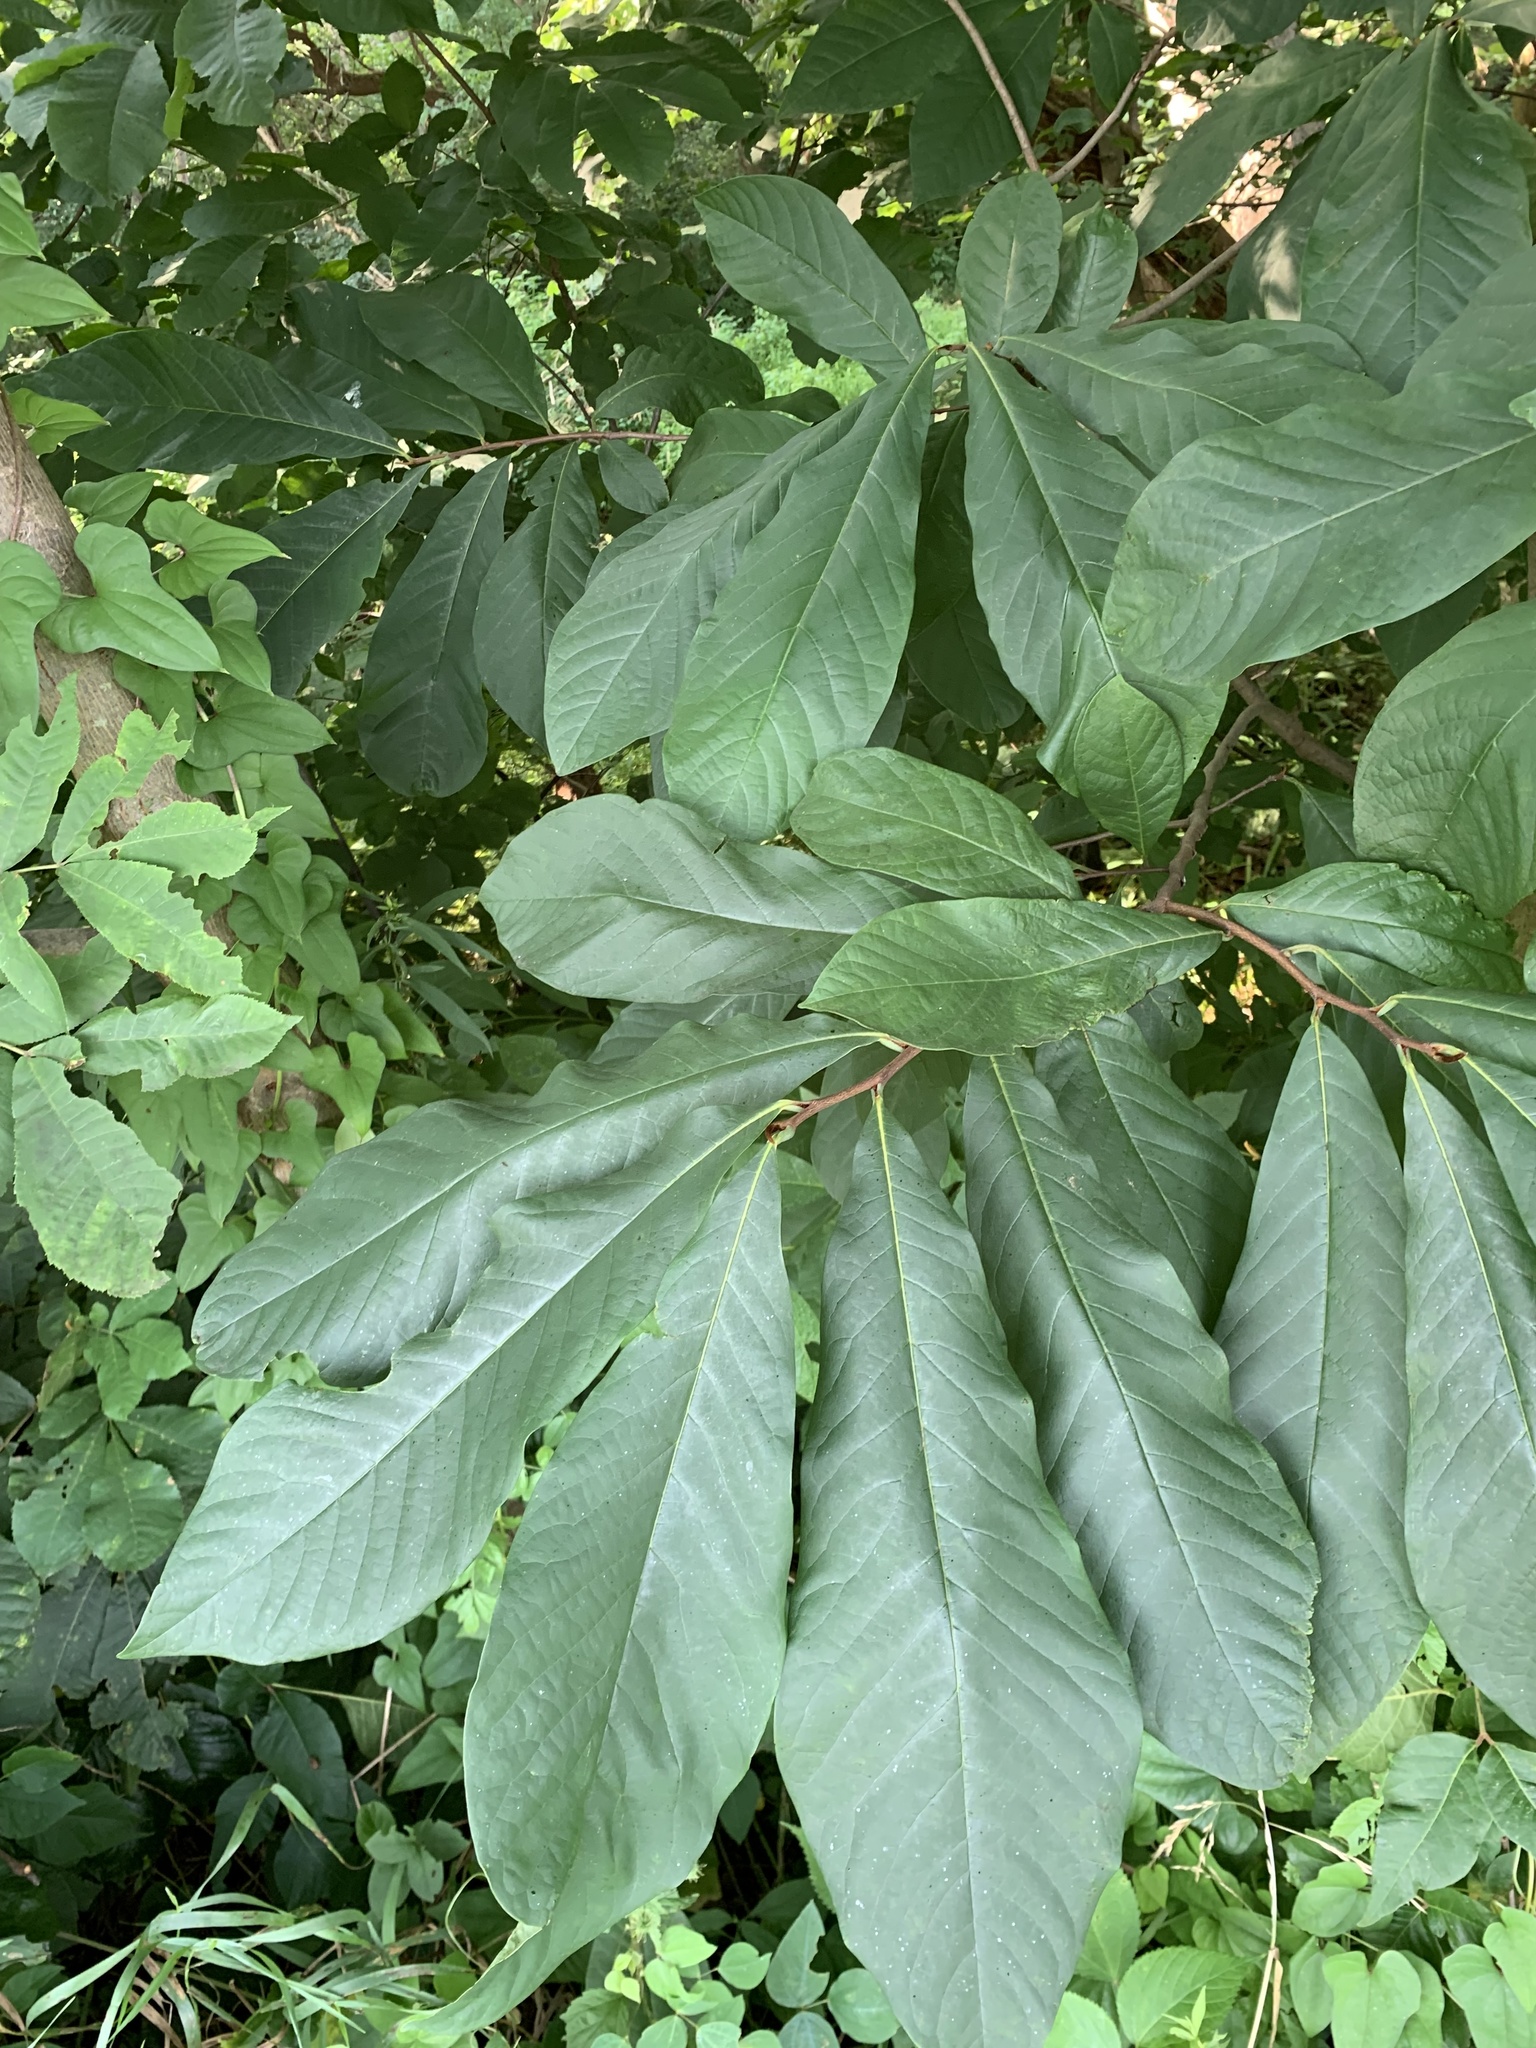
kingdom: Plantae
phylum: Tracheophyta
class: Magnoliopsida
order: Magnoliales
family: Annonaceae
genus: Asimina
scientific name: Asimina triloba
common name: Dog-banana
